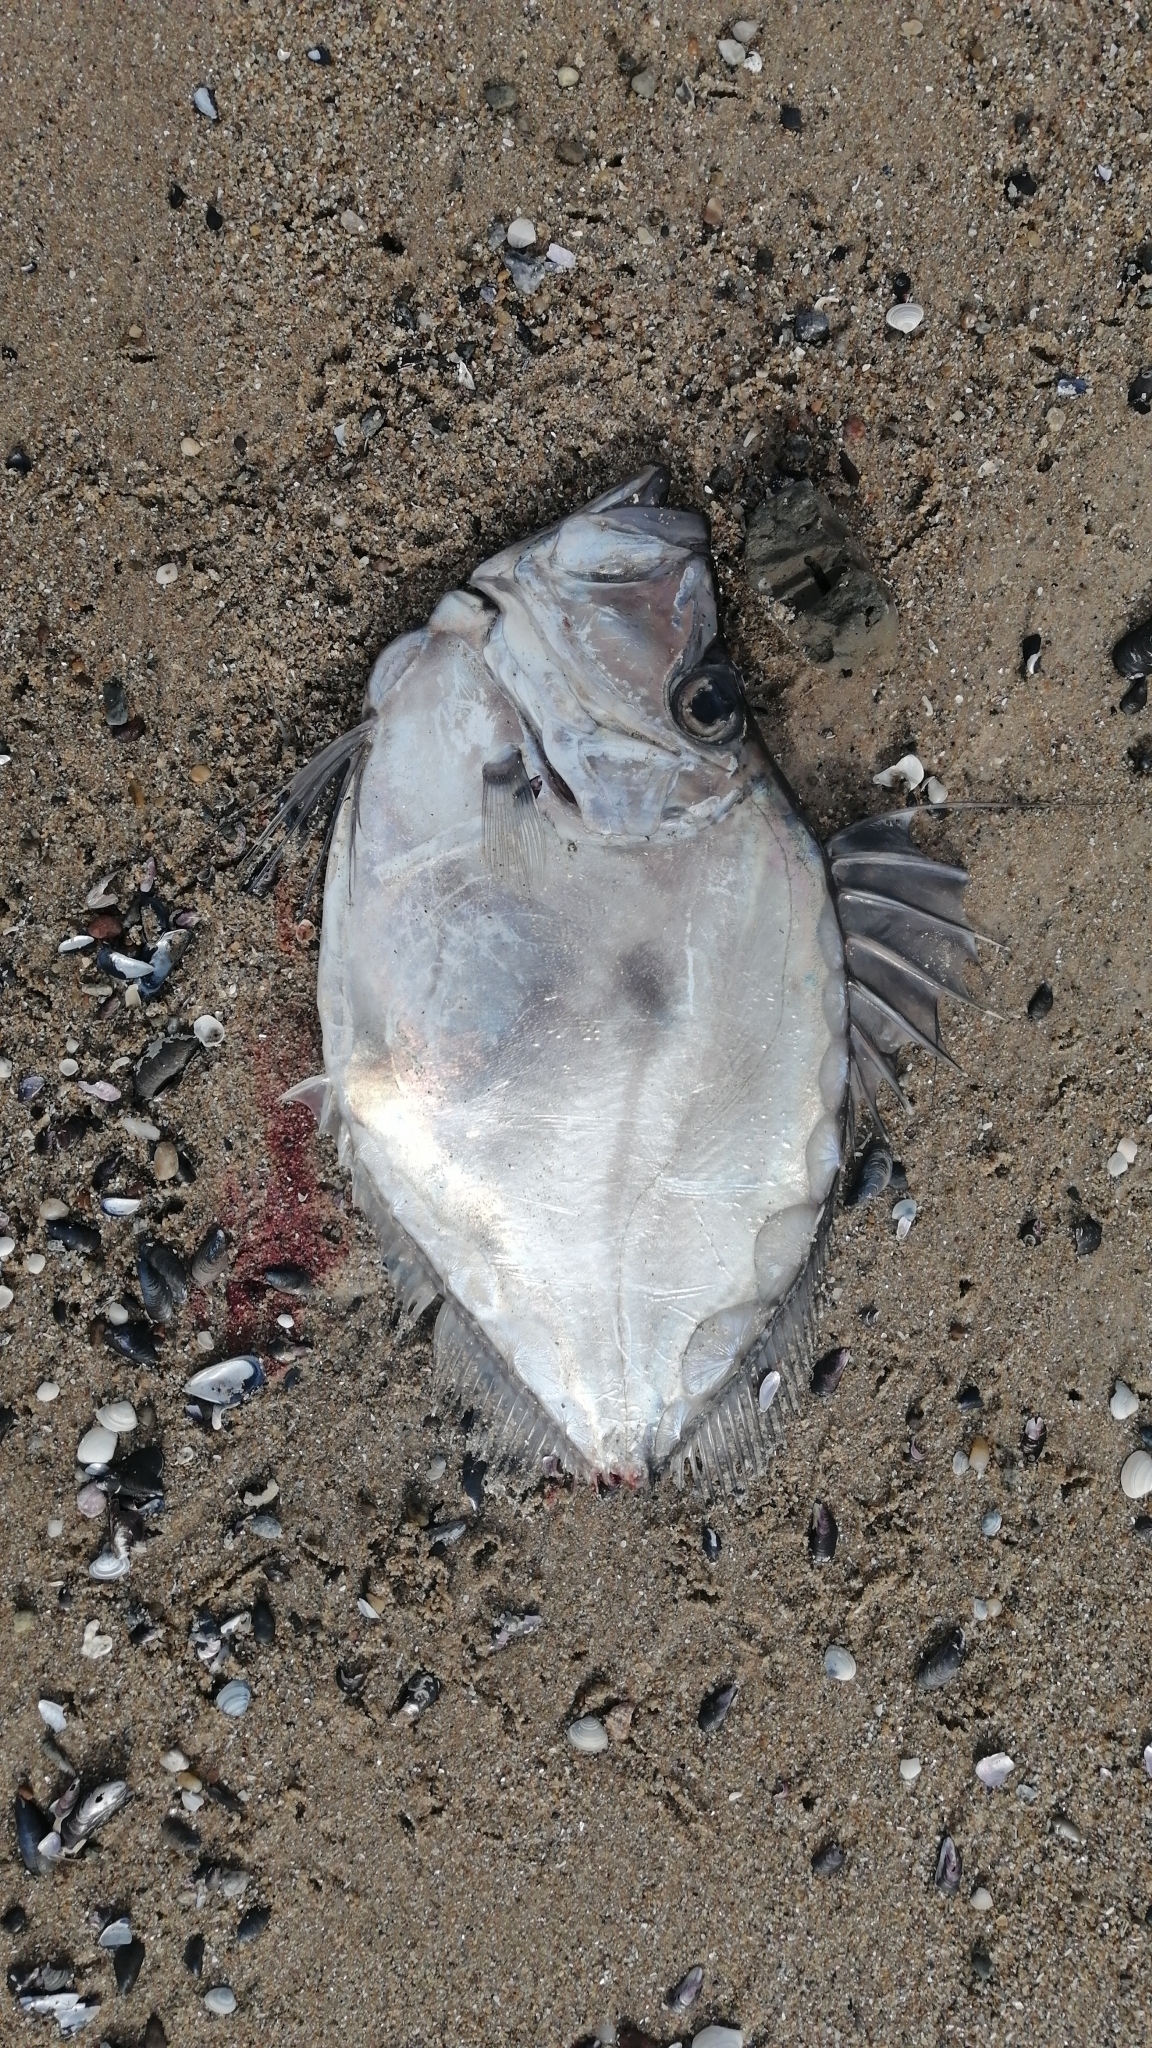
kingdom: Animalia
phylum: Chordata
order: Zeiformes
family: Zeidae
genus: Zenopsis
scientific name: Zenopsis conchifer
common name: Silvery john dory
